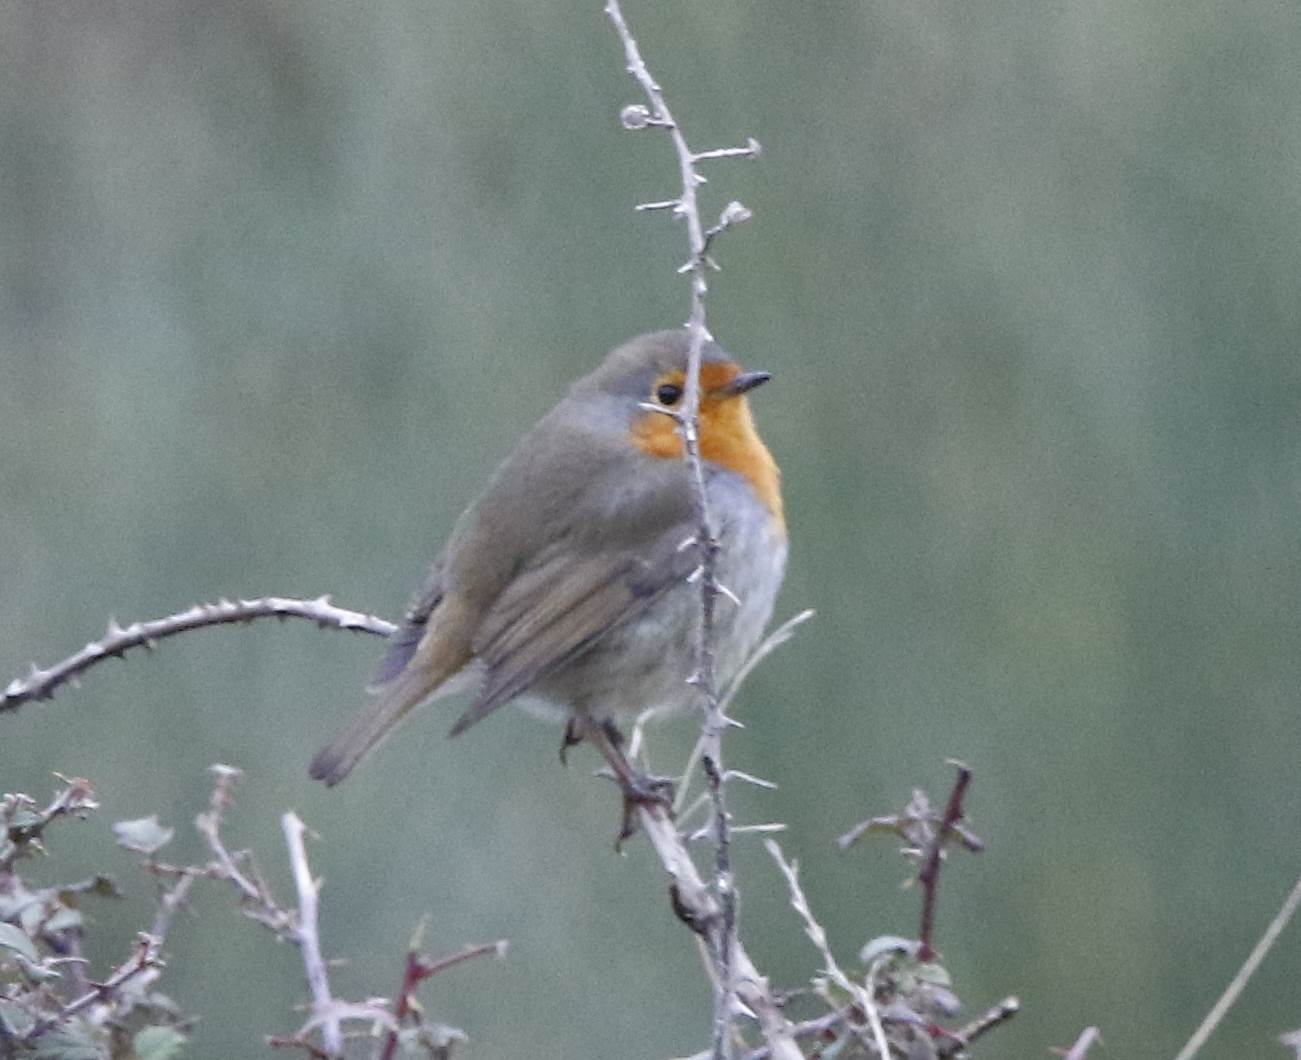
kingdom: Animalia
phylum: Chordata
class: Aves
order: Passeriformes
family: Muscicapidae
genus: Erithacus
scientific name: Erithacus rubecula
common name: European robin
